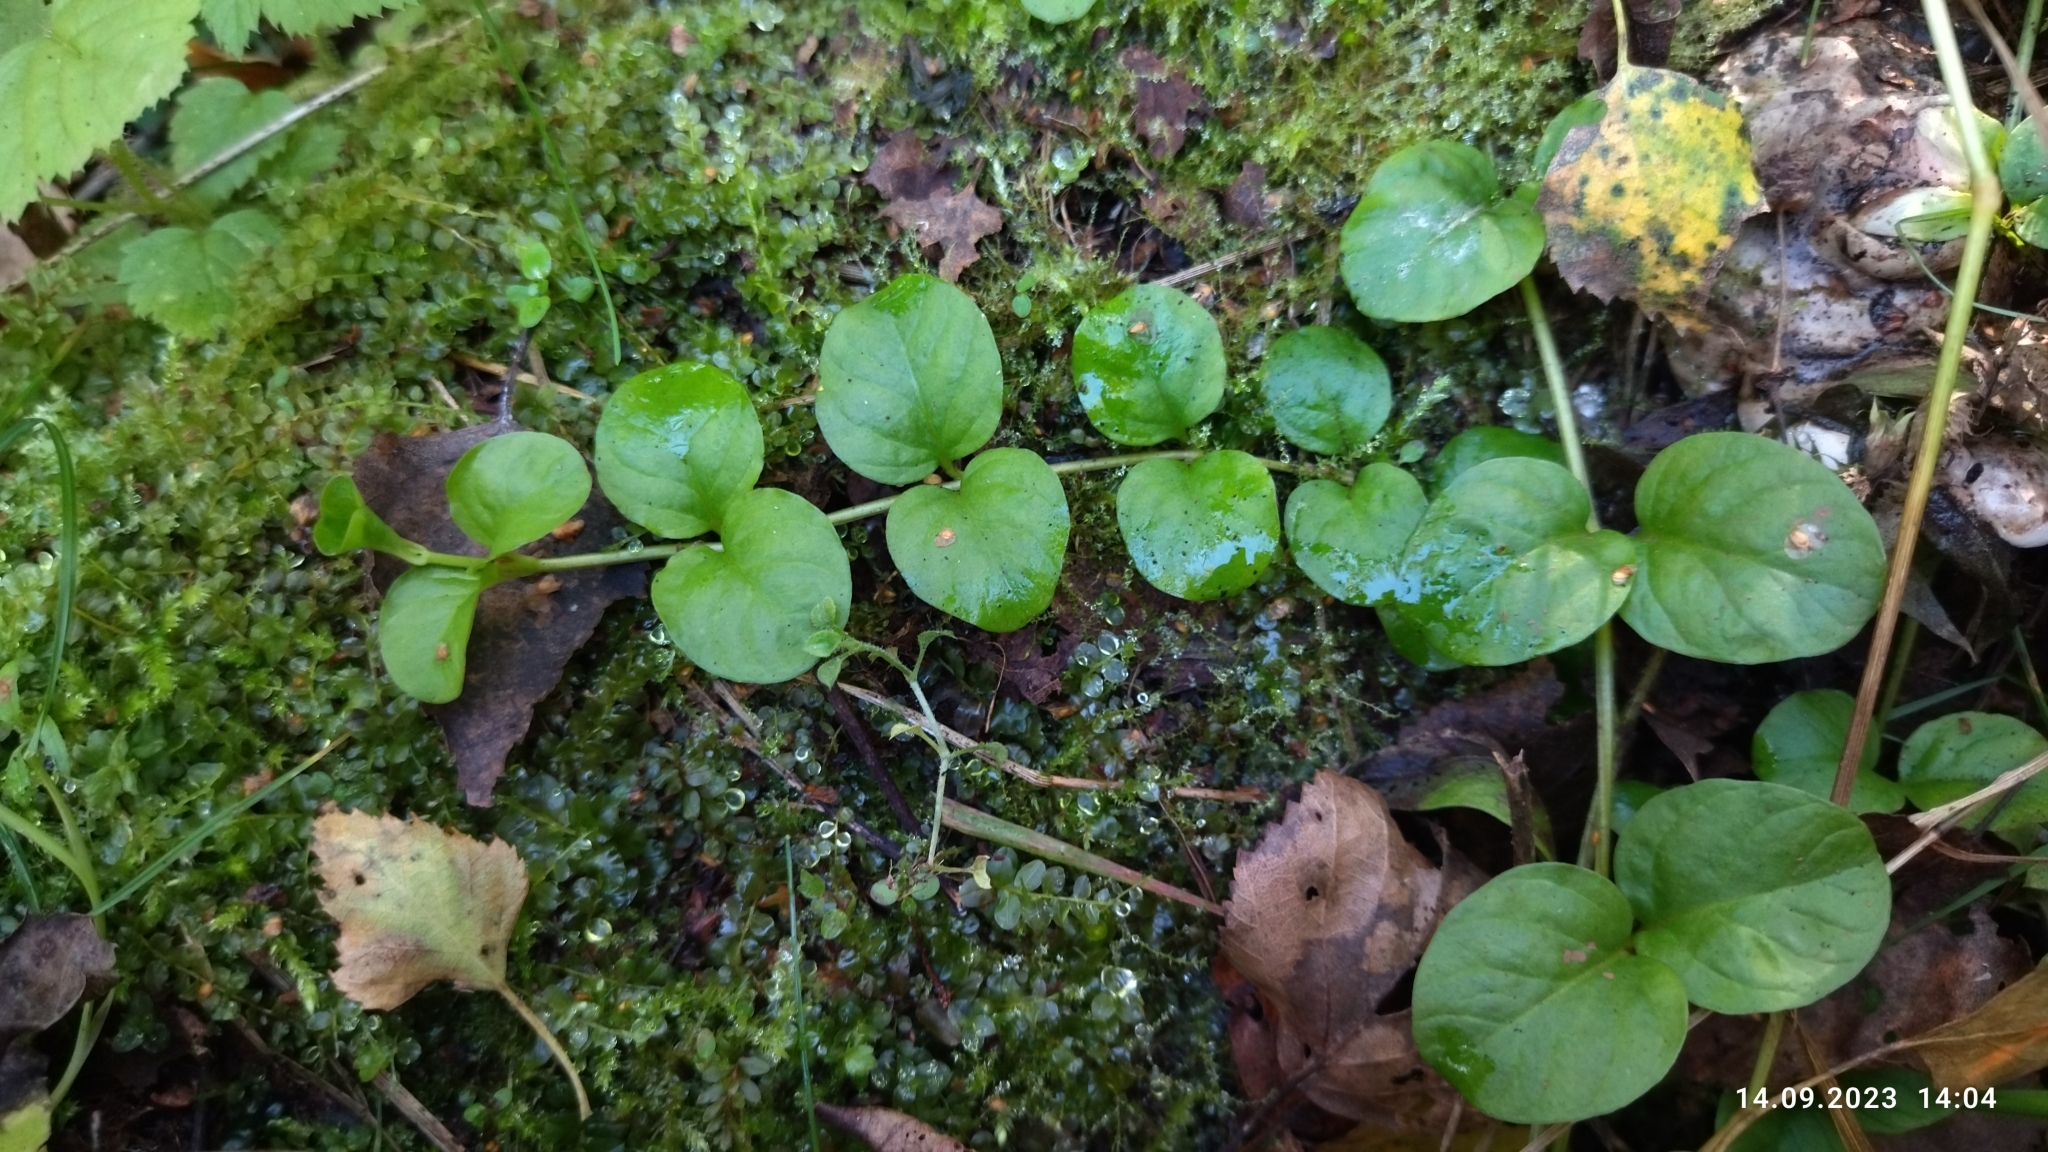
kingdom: Plantae
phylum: Tracheophyta
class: Magnoliopsida
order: Ericales
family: Primulaceae
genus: Lysimachia
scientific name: Lysimachia nummularia
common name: Moneywort
